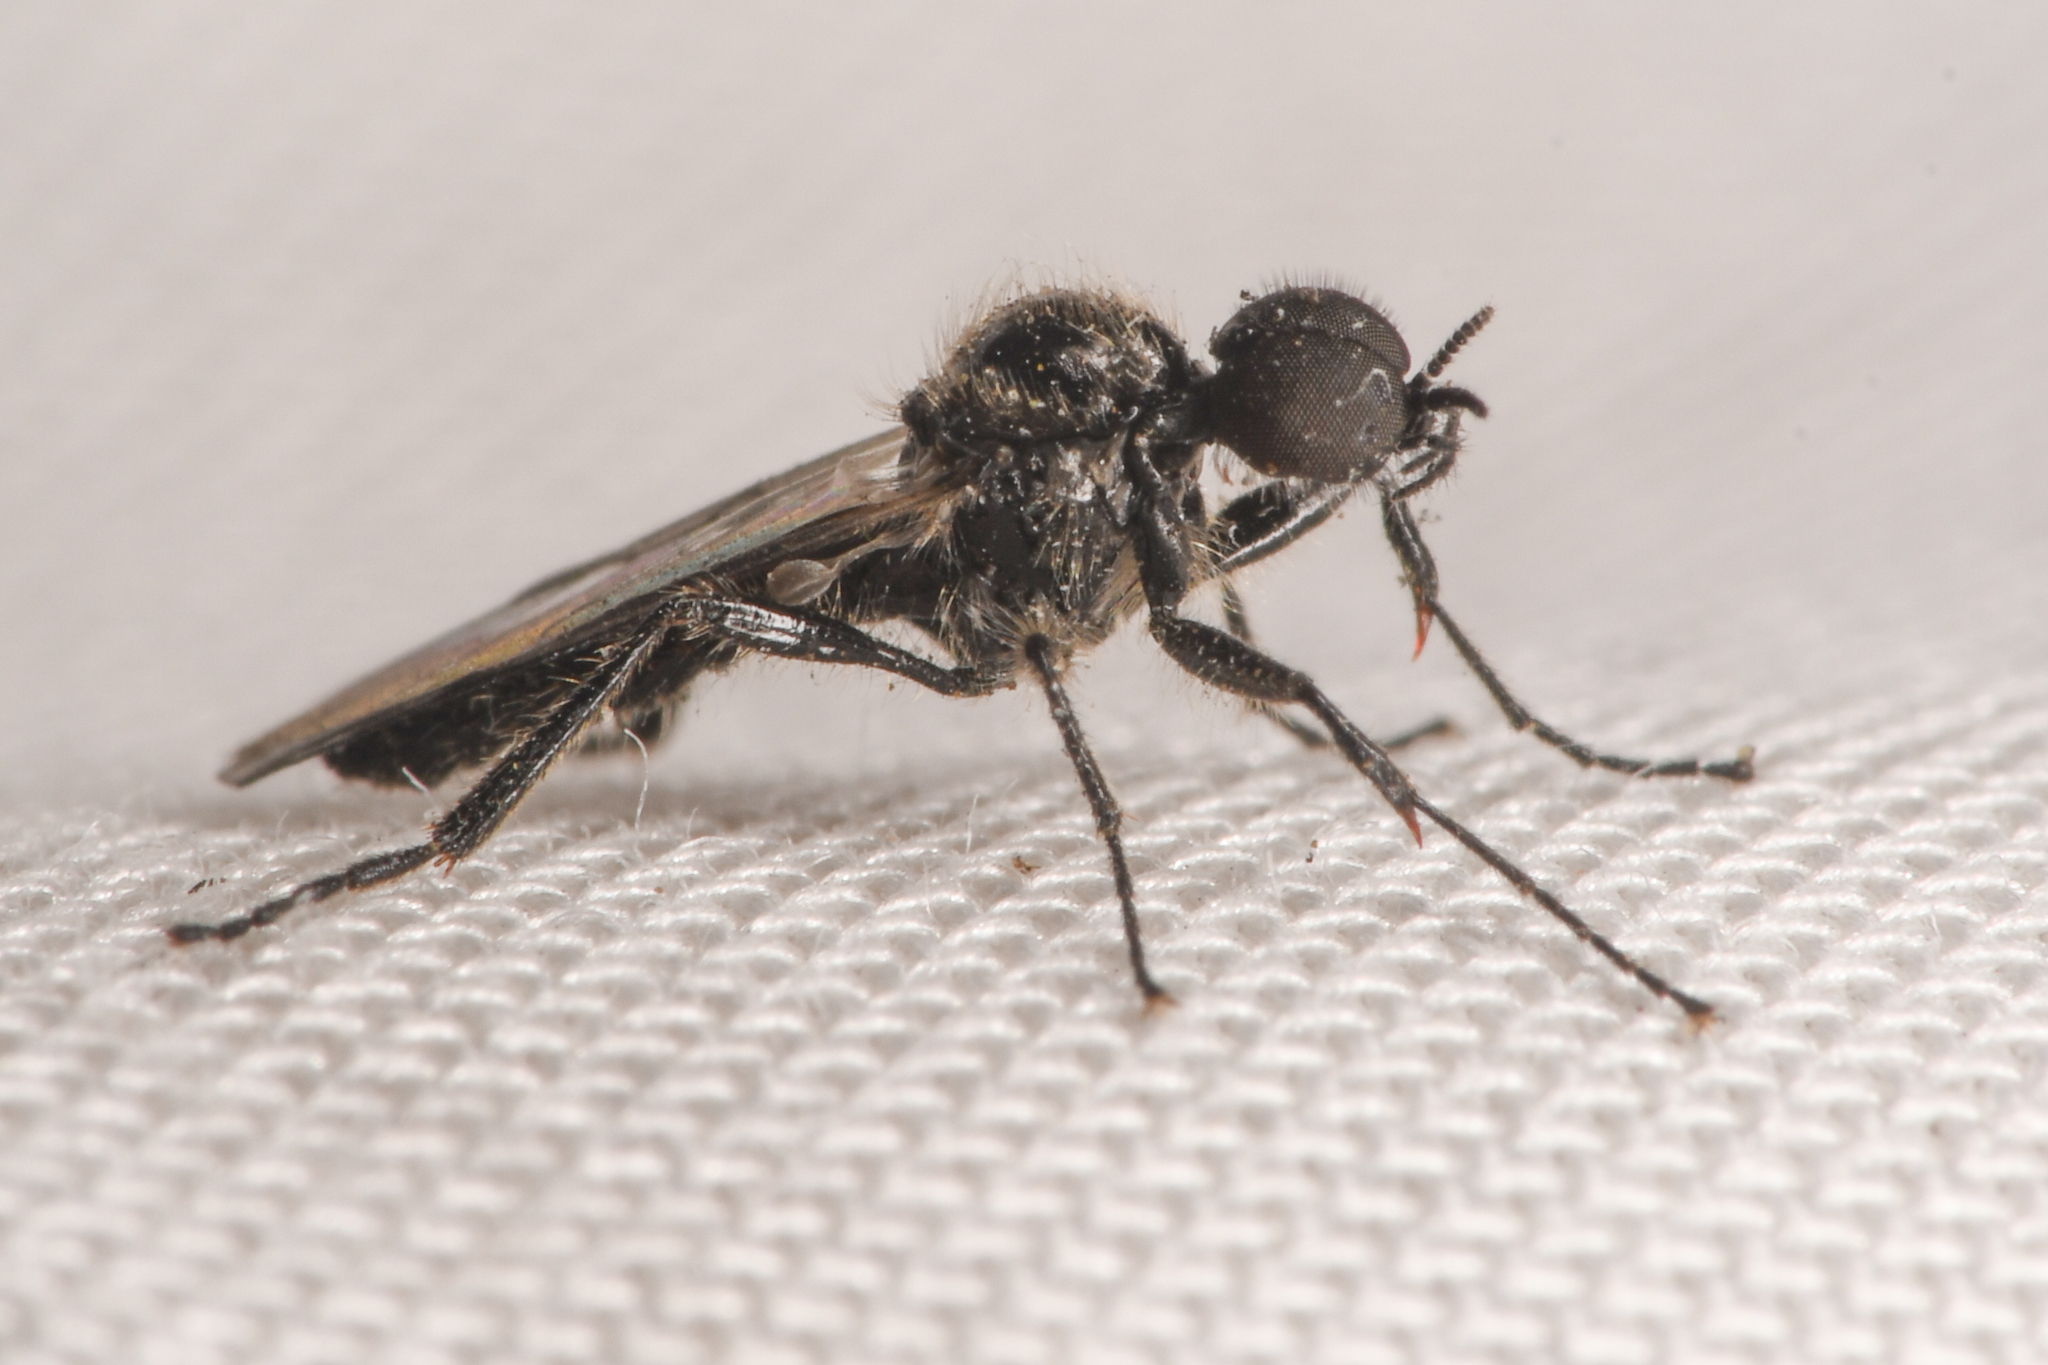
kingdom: Animalia
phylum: Arthropoda
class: Insecta
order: Diptera
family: Bibionidae
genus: Bibiodes
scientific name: Bibiodes halteralis
